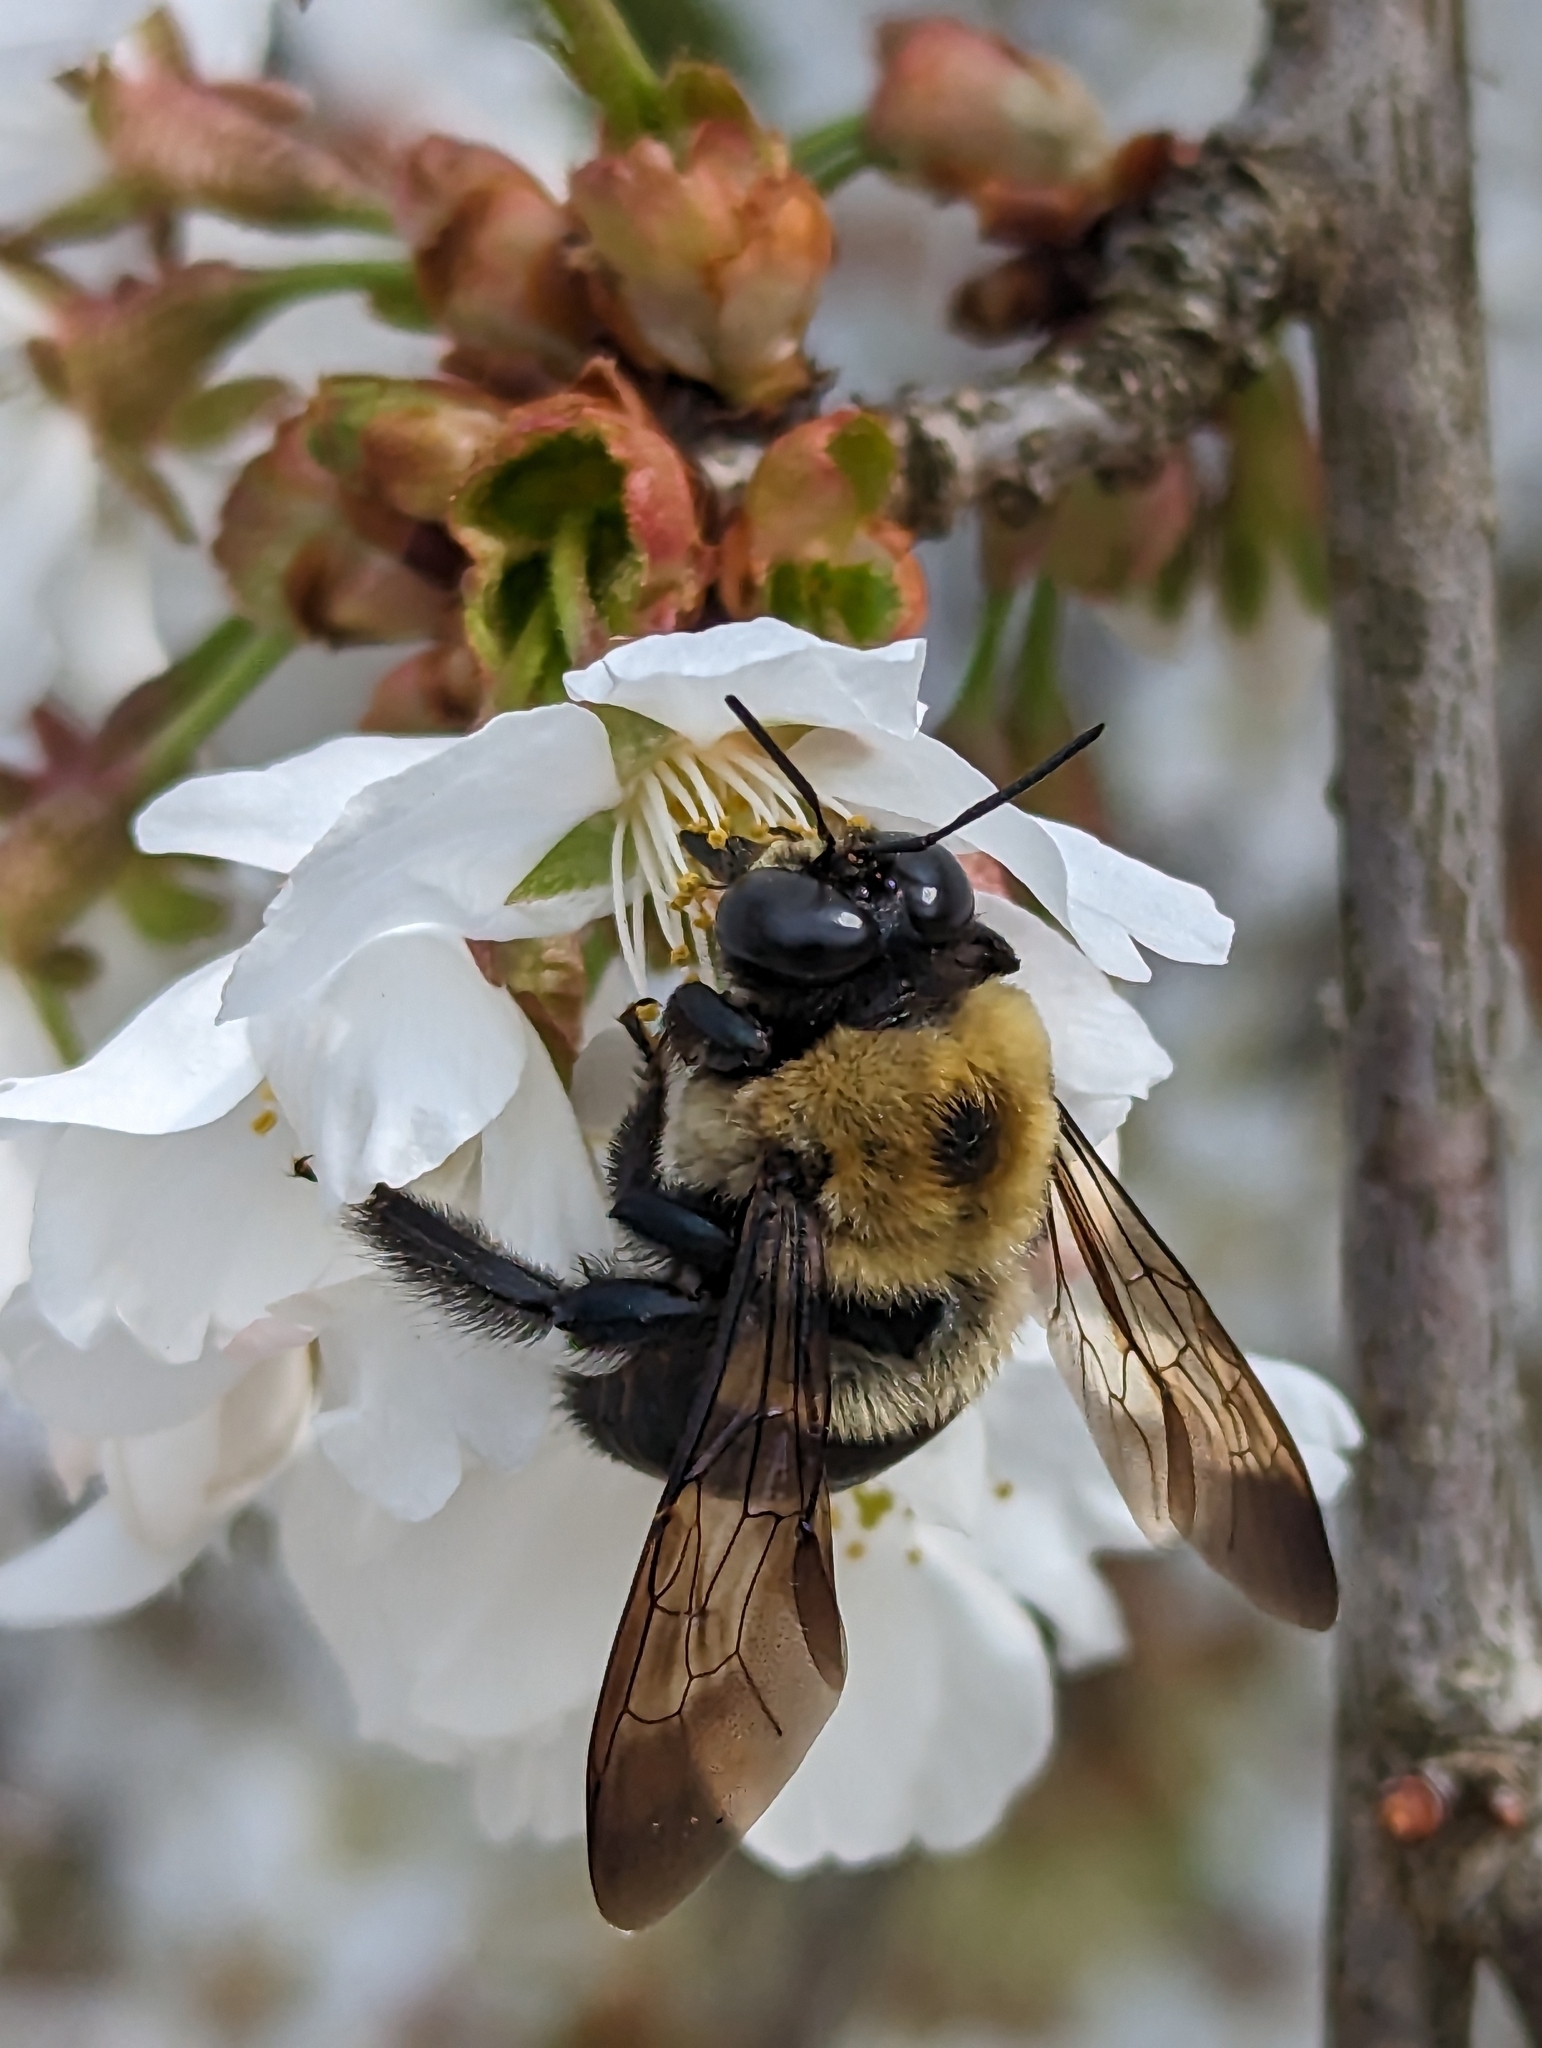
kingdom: Animalia
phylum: Arthropoda
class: Insecta
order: Hymenoptera
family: Apidae
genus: Xylocopa
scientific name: Xylocopa virginica
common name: Carpenter bee
